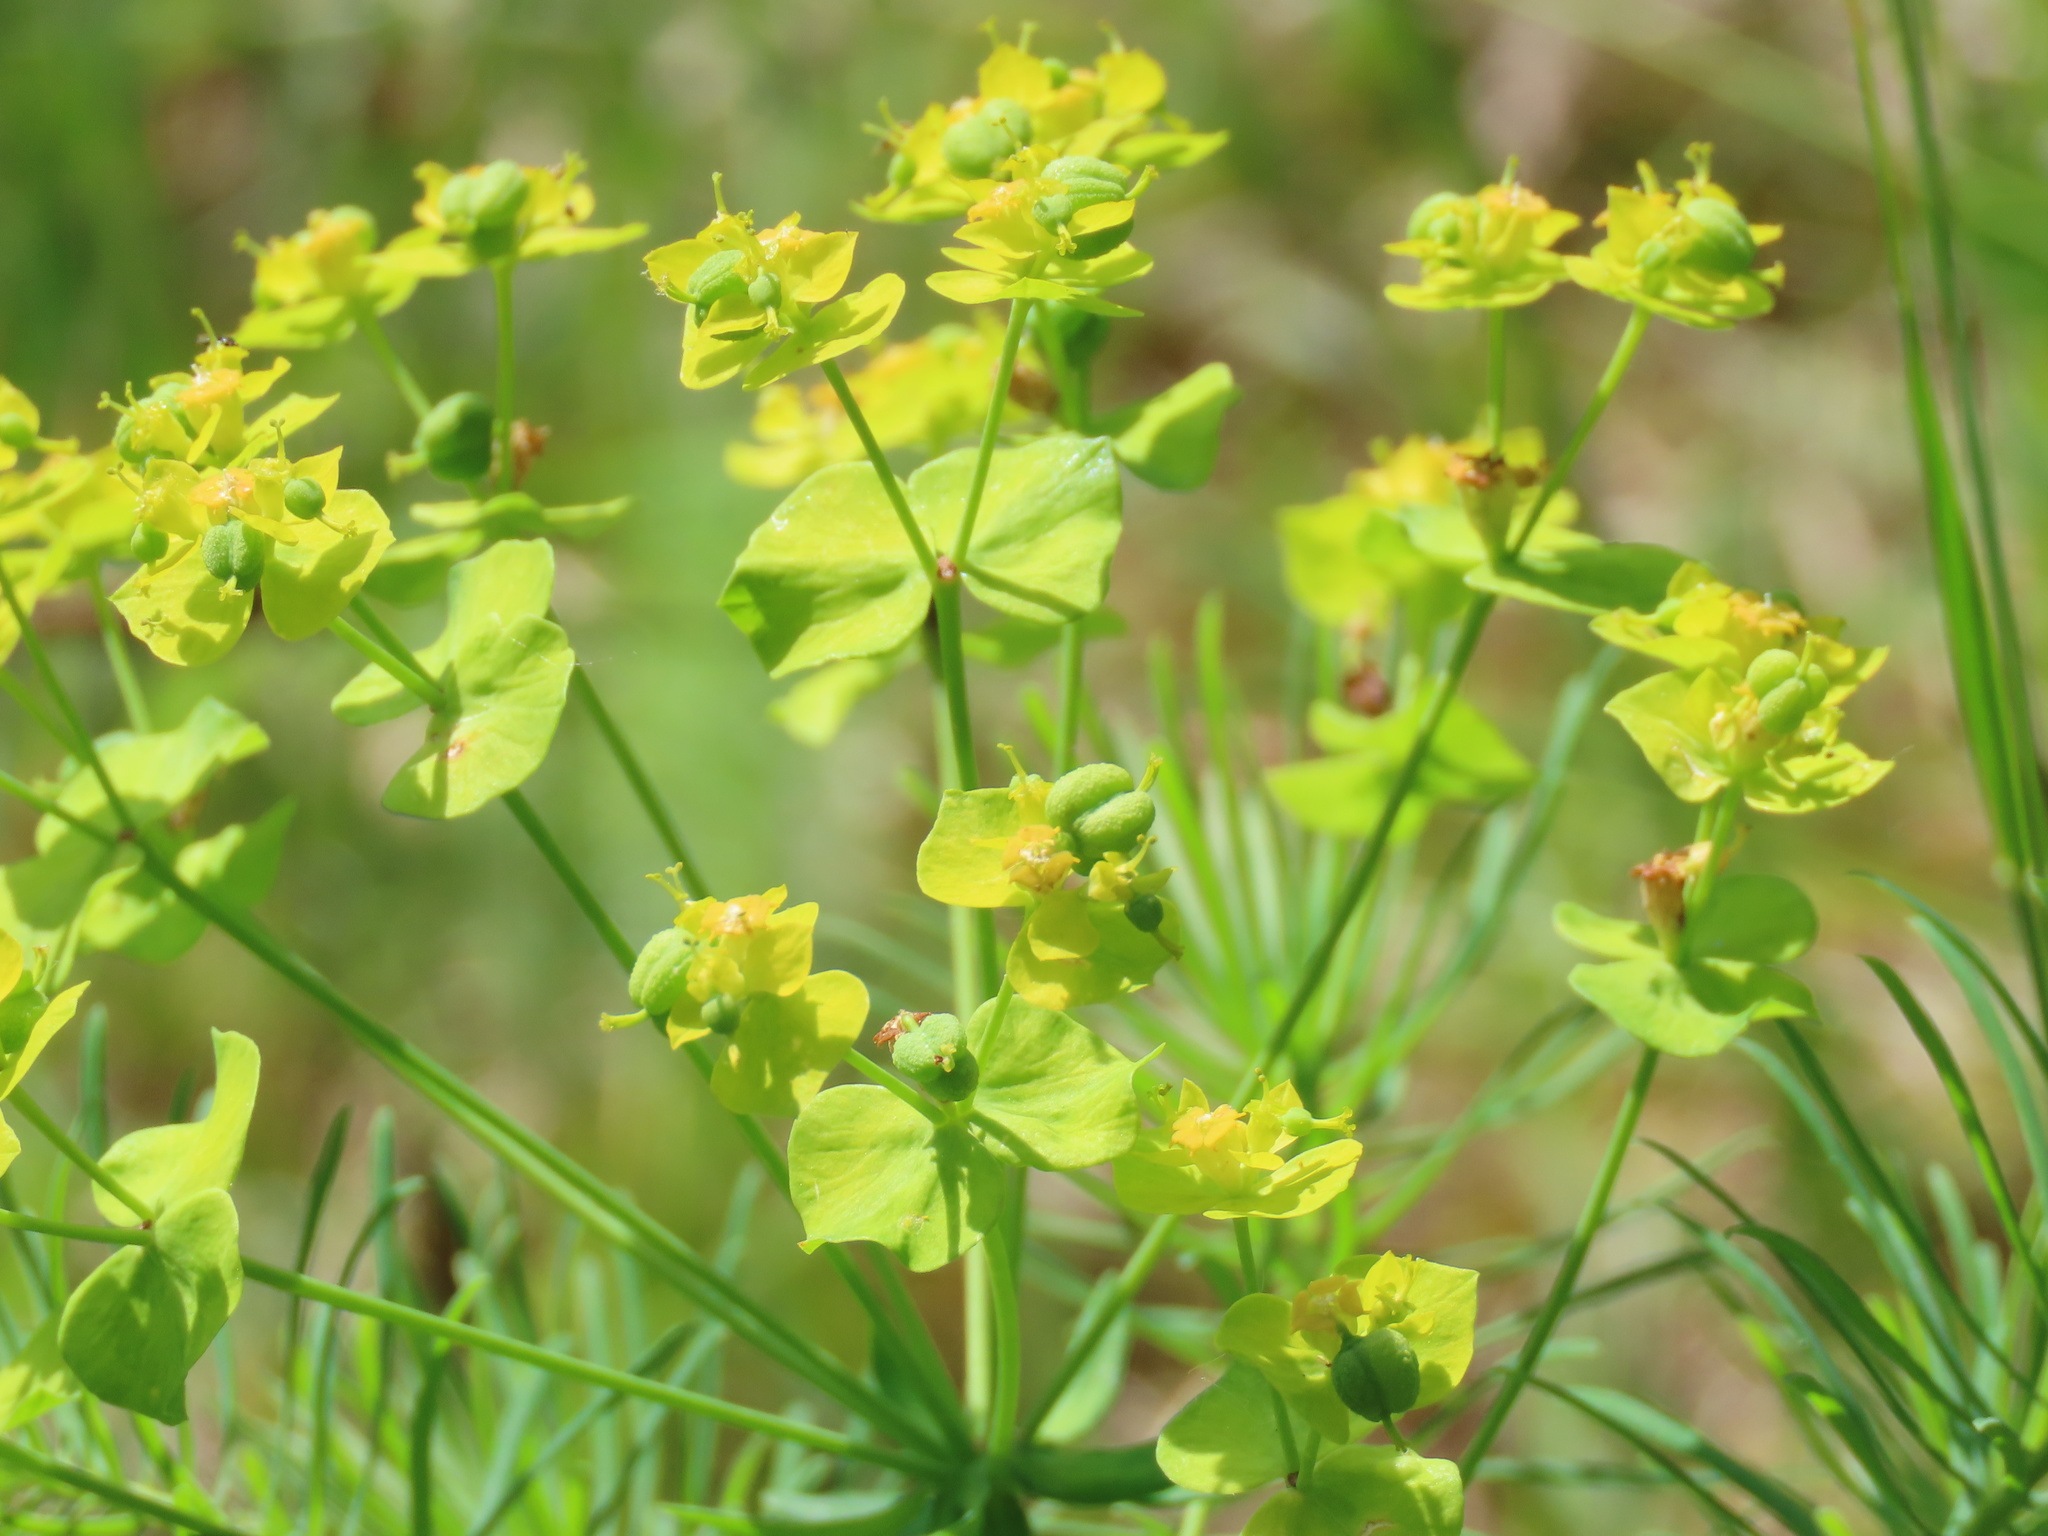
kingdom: Plantae
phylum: Tracheophyta
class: Magnoliopsida
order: Malpighiales
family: Euphorbiaceae
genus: Euphorbia
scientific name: Euphorbia cyparissias
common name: Cypress spurge
